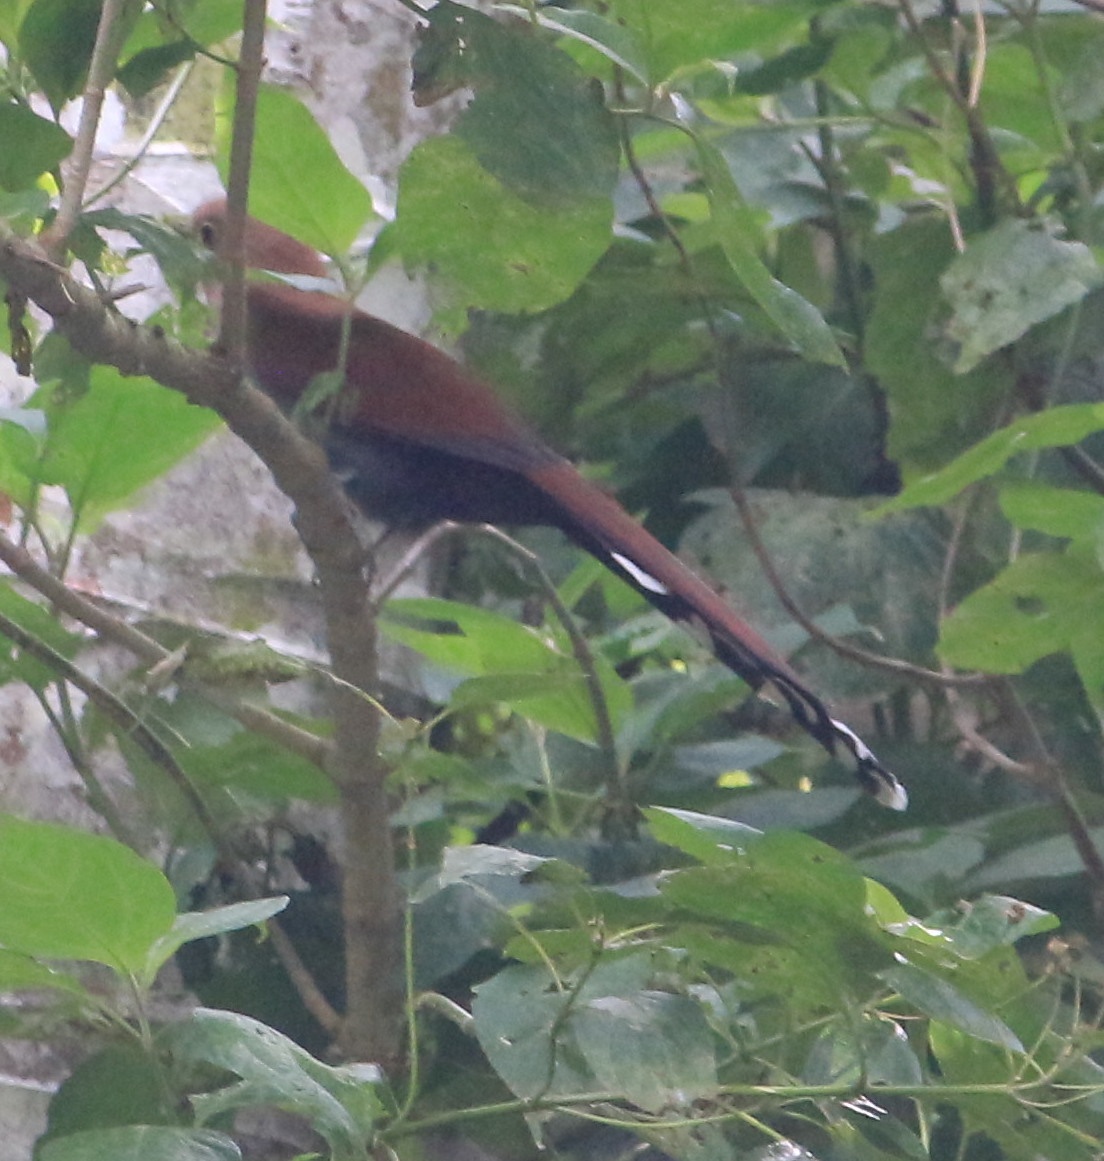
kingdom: Animalia
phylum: Chordata
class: Aves
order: Cuculiformes
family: Cuculidae
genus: Piaya
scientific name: Piaya cayana
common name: Squirrel cuckoo
